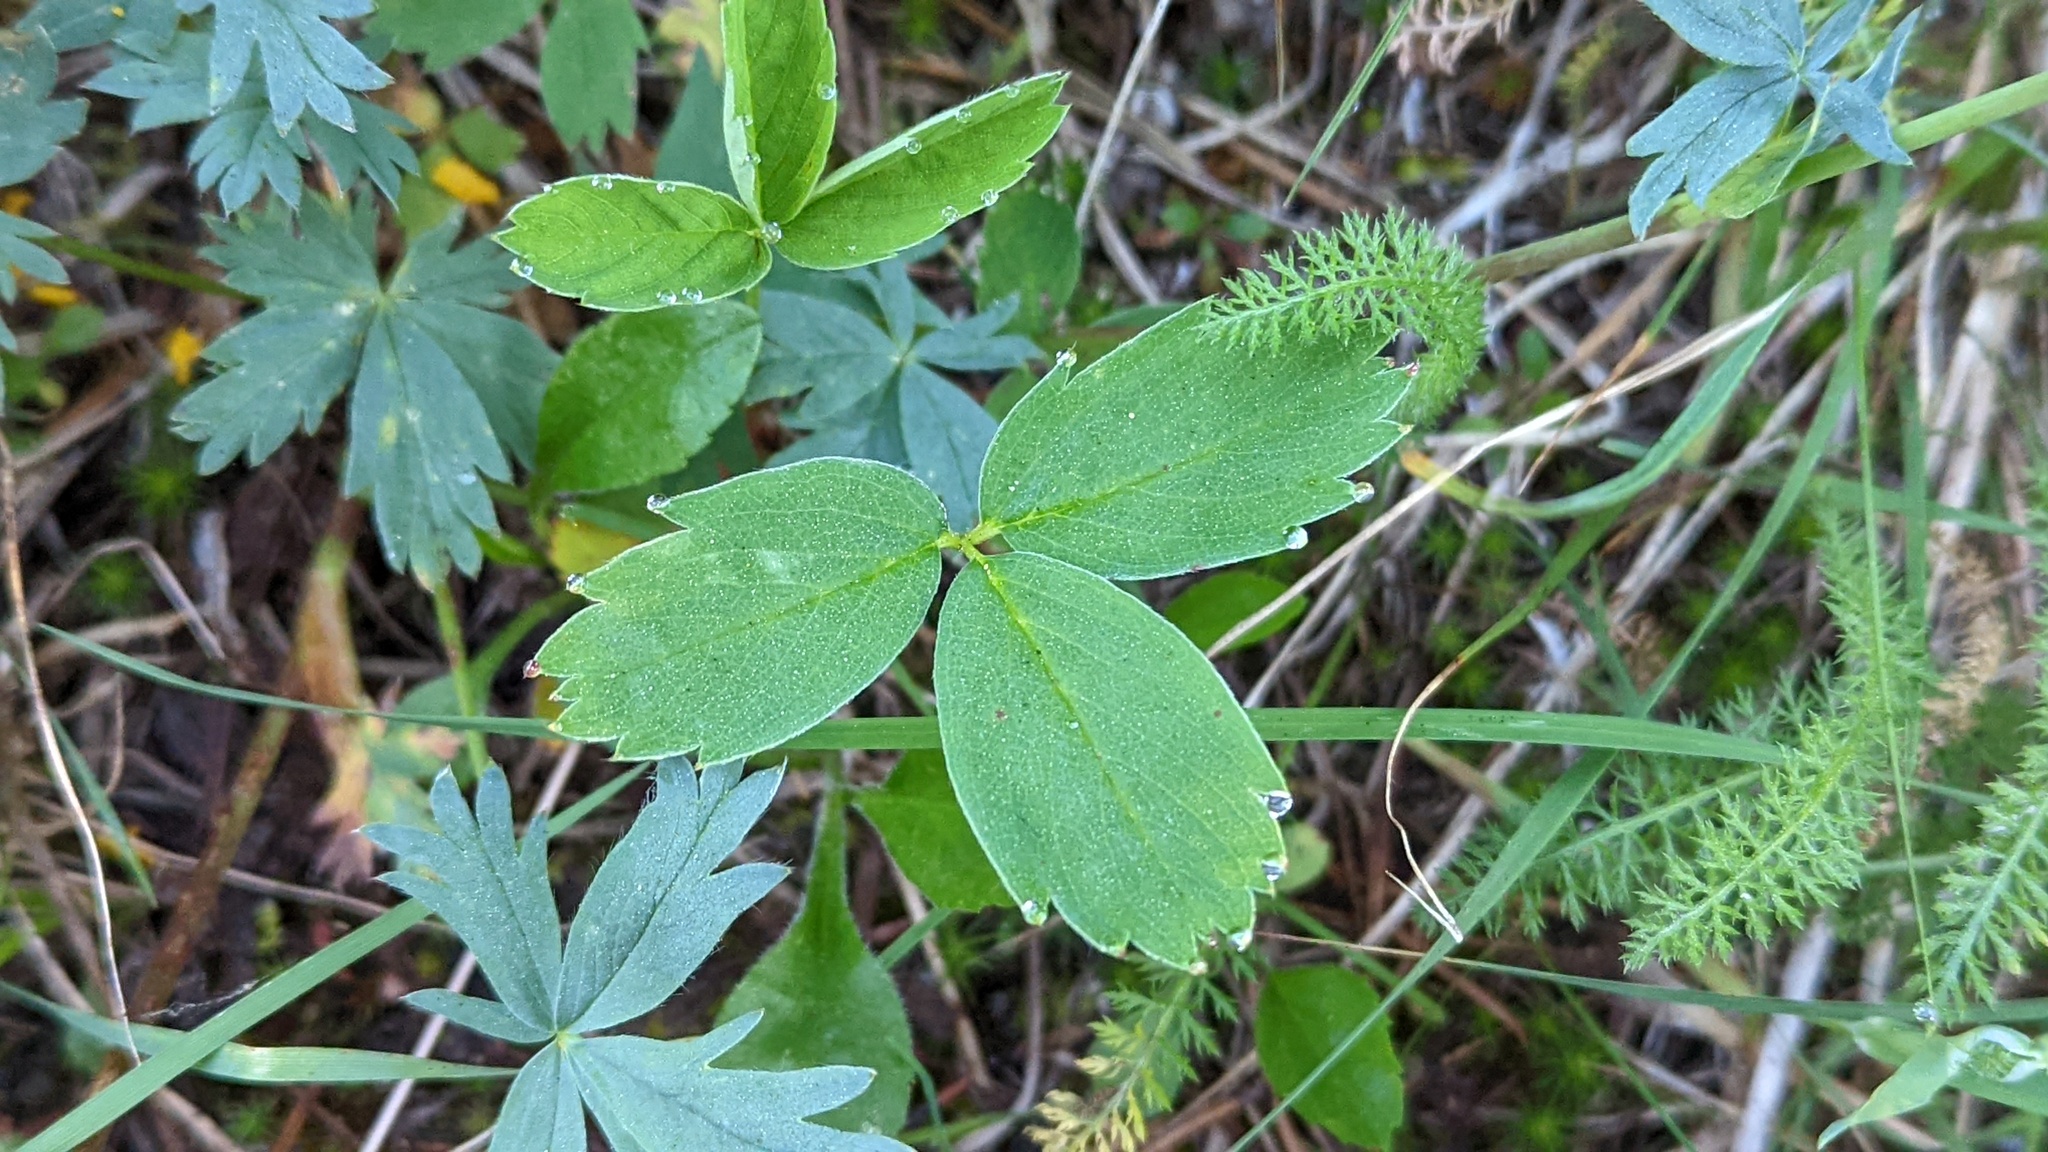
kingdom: Plantae
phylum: Tracheophyta
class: Magnoliopsida
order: Rosales
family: Rosaceae
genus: Fragaria
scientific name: Fragaria virginiana
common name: Thickleaved wild strawberry
